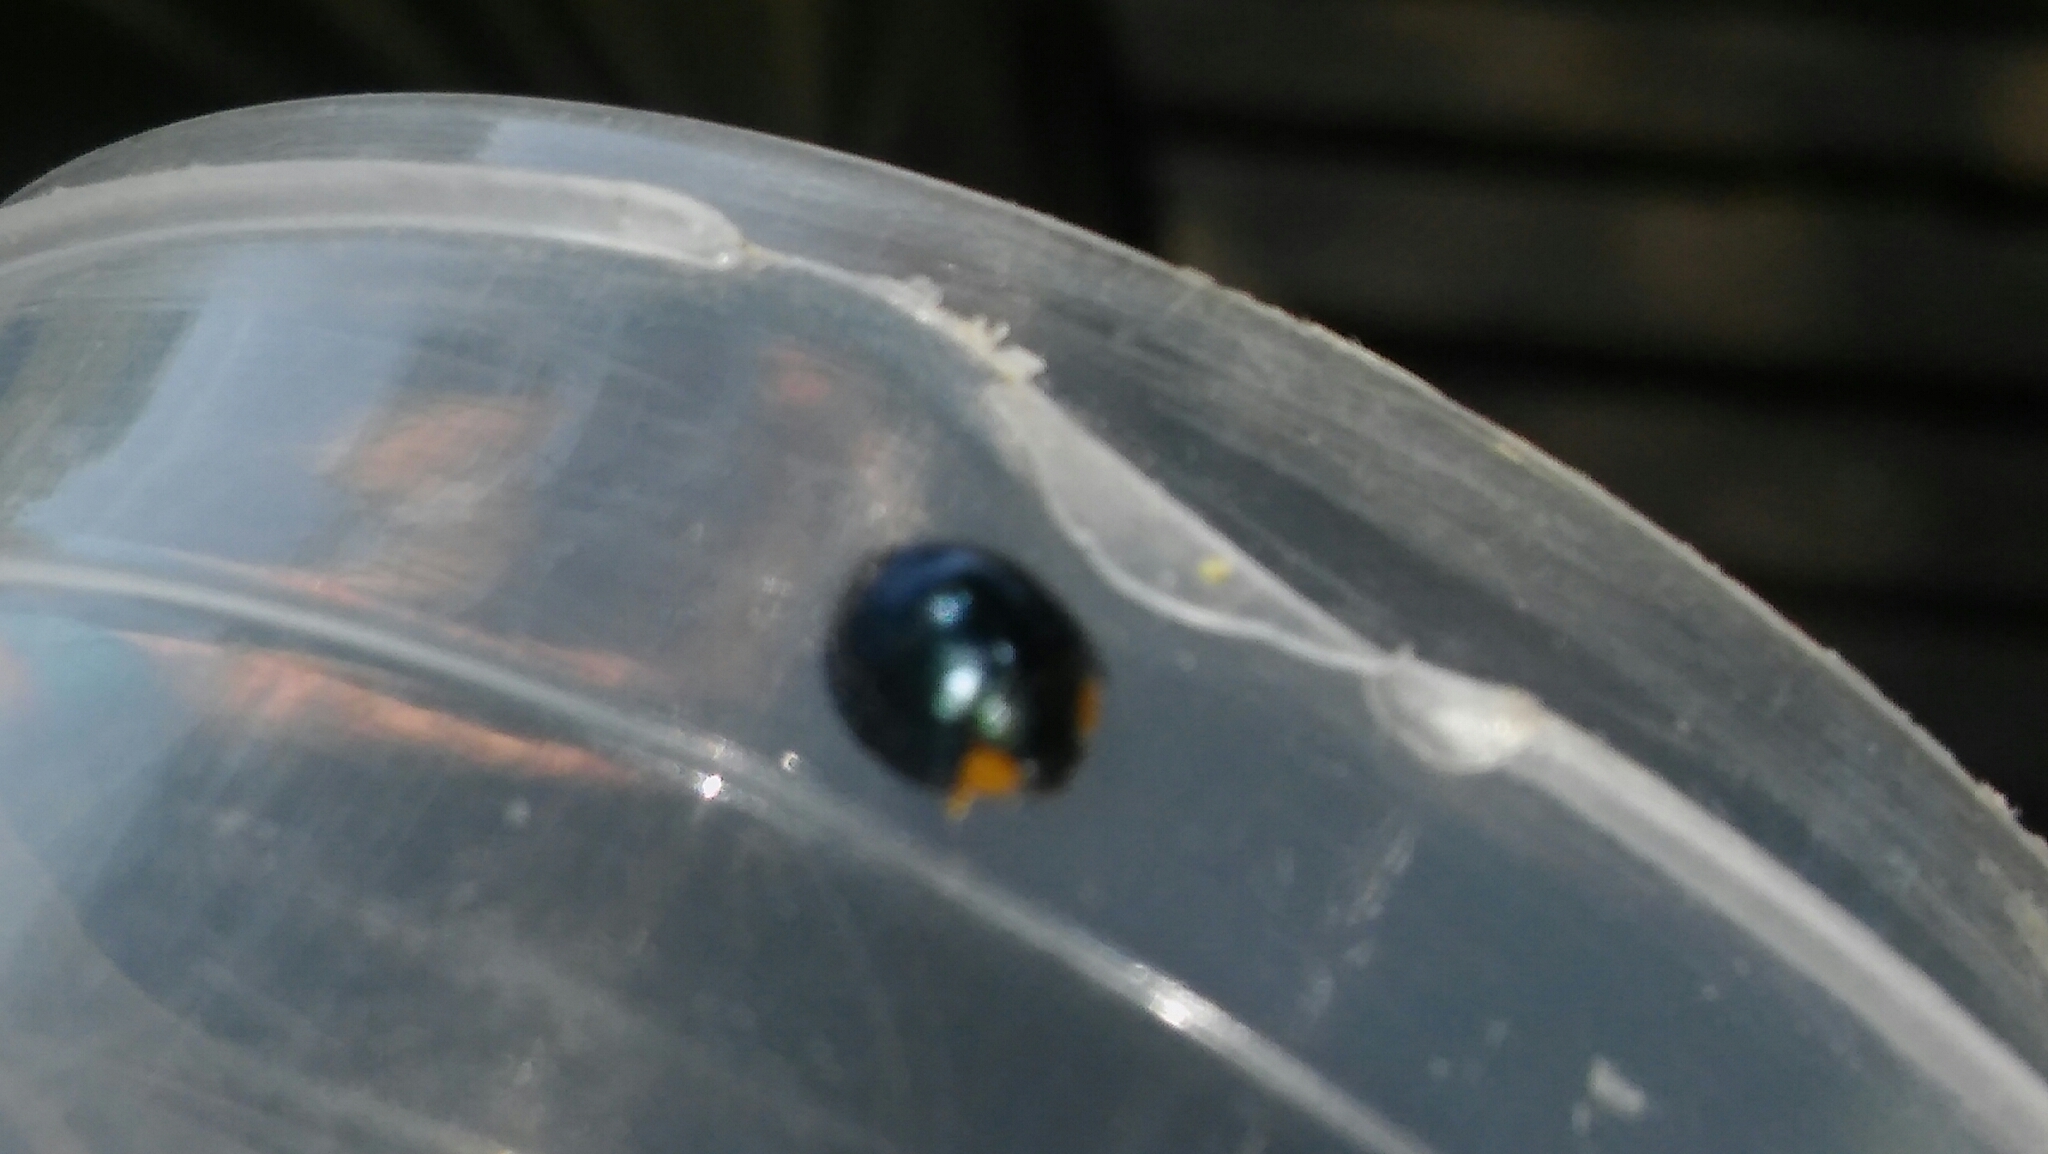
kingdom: Animalia
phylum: Arthropoda
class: Insecta
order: Coleoptera
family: Coccinellidae
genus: Curinus
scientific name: Curinus coeruleus
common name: Ladybird beetle
